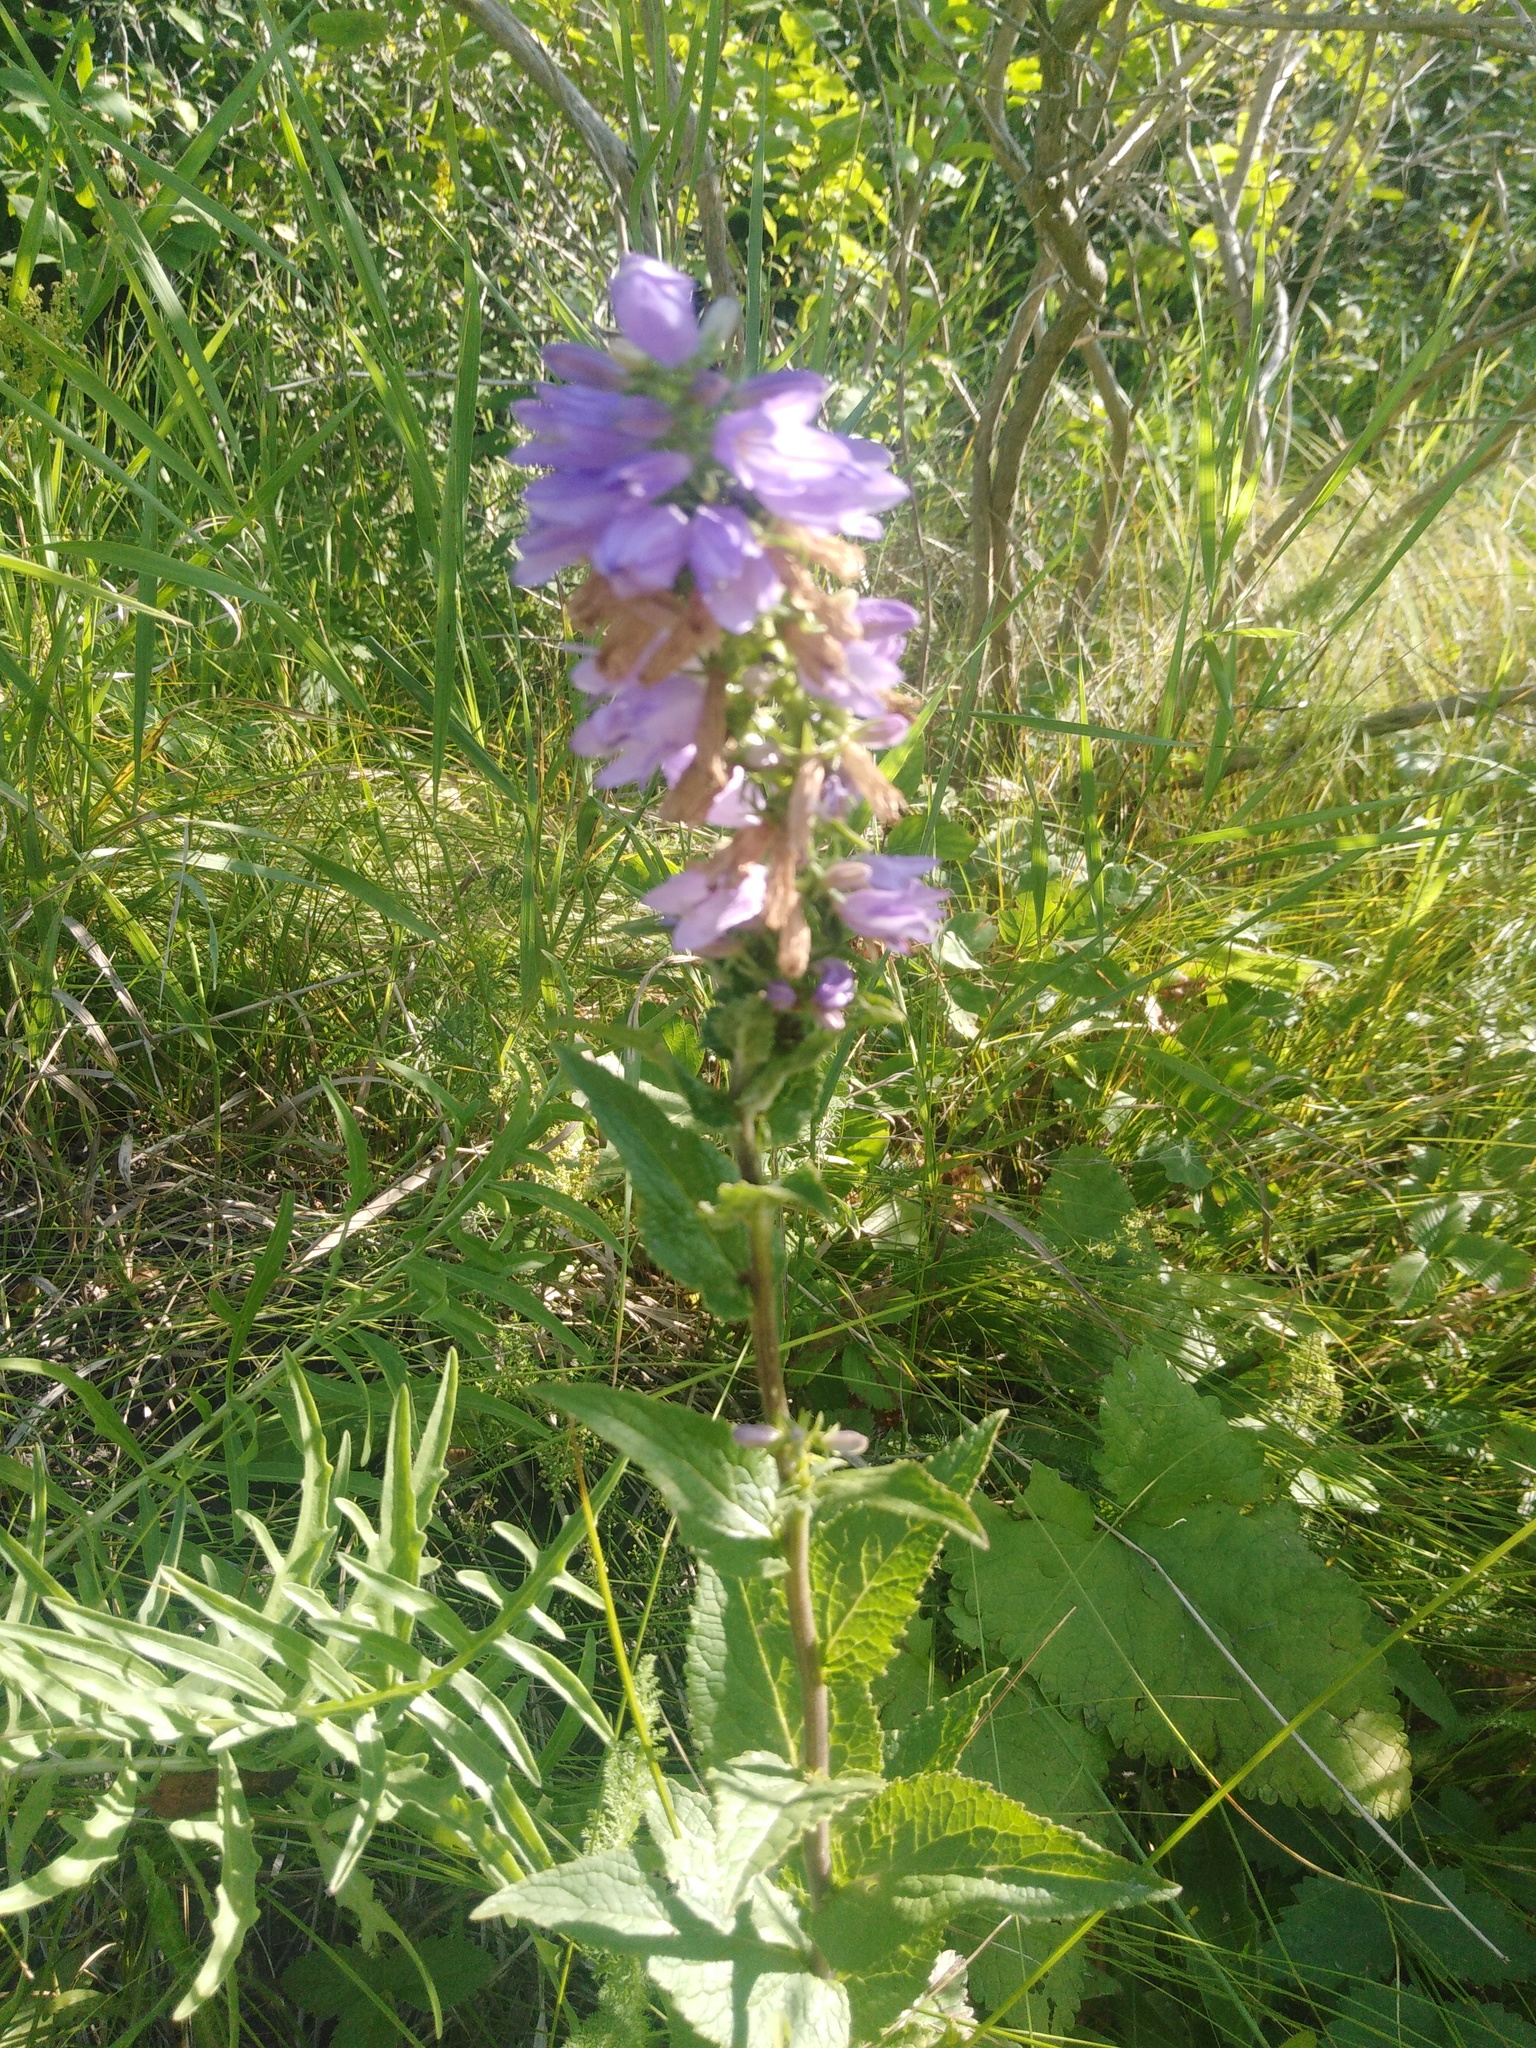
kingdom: Plantae
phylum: Tracheophyta
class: Magnoliopsida
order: Asterales
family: Campanulaceae
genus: Campanula
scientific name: Campanula bononiensis
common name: Pale bellflower
